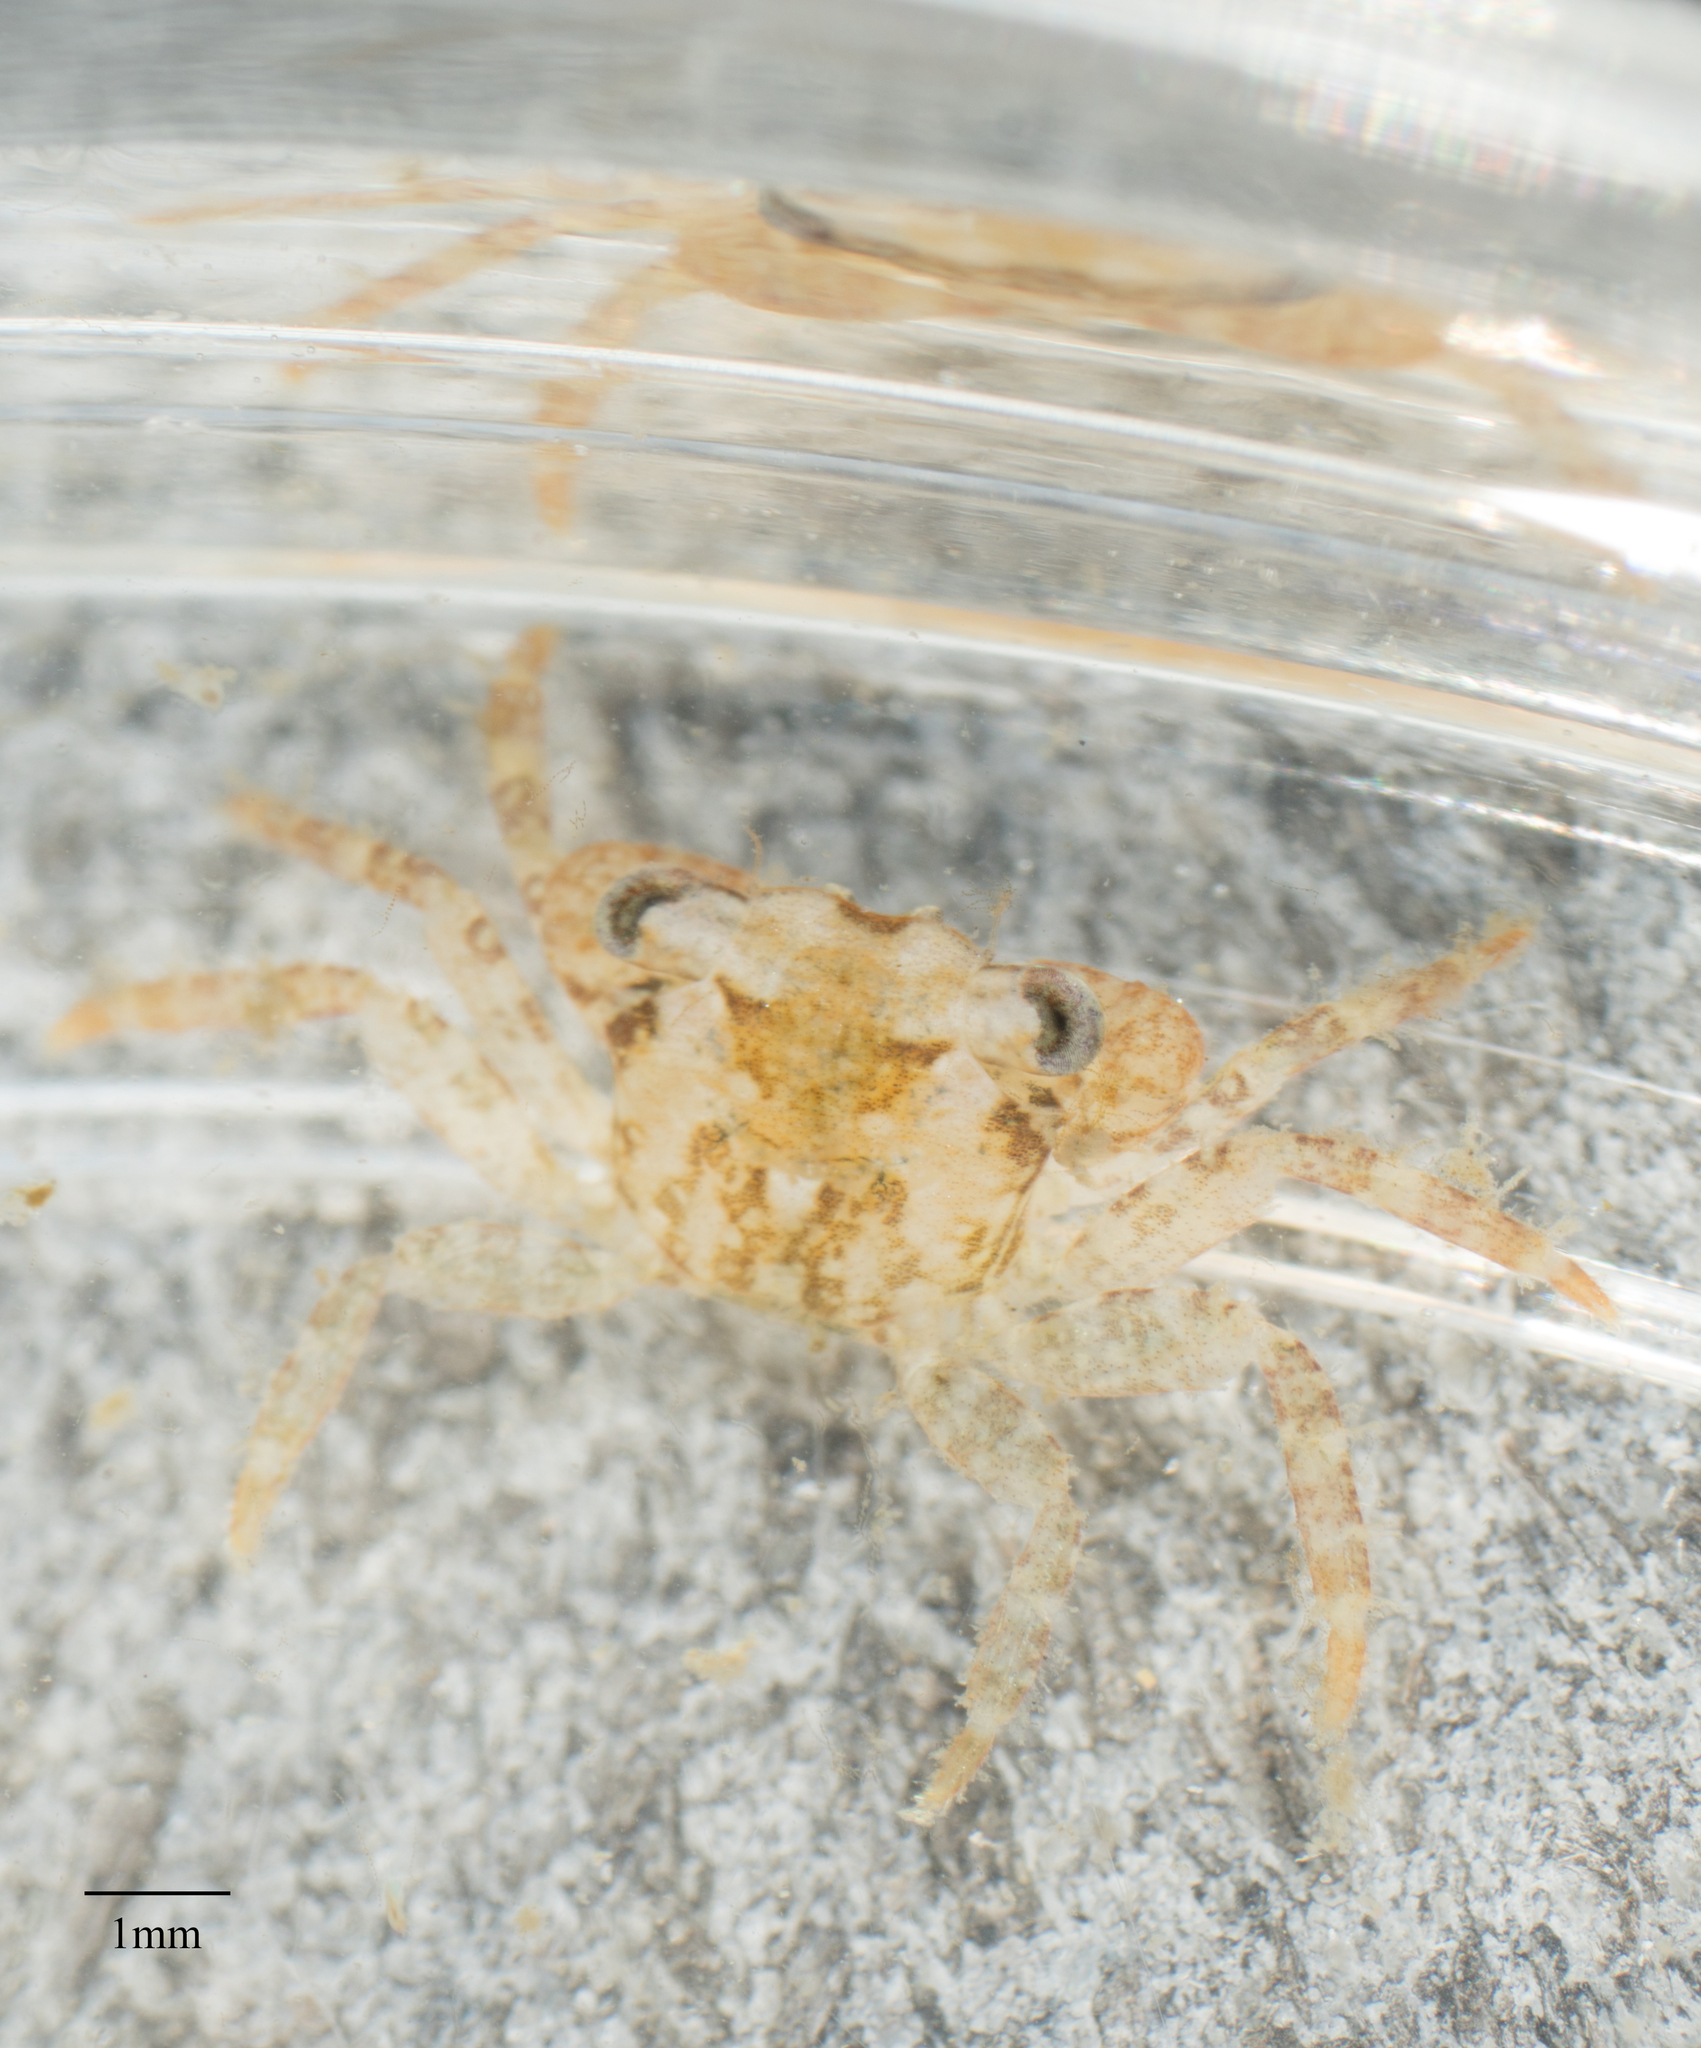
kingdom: Animalia
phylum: Arthropoda
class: Malacostraca
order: Decapoda
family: Grapsidae
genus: Pachygrapsus
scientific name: Pachygrapsus crassipes
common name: Striped shore crab
